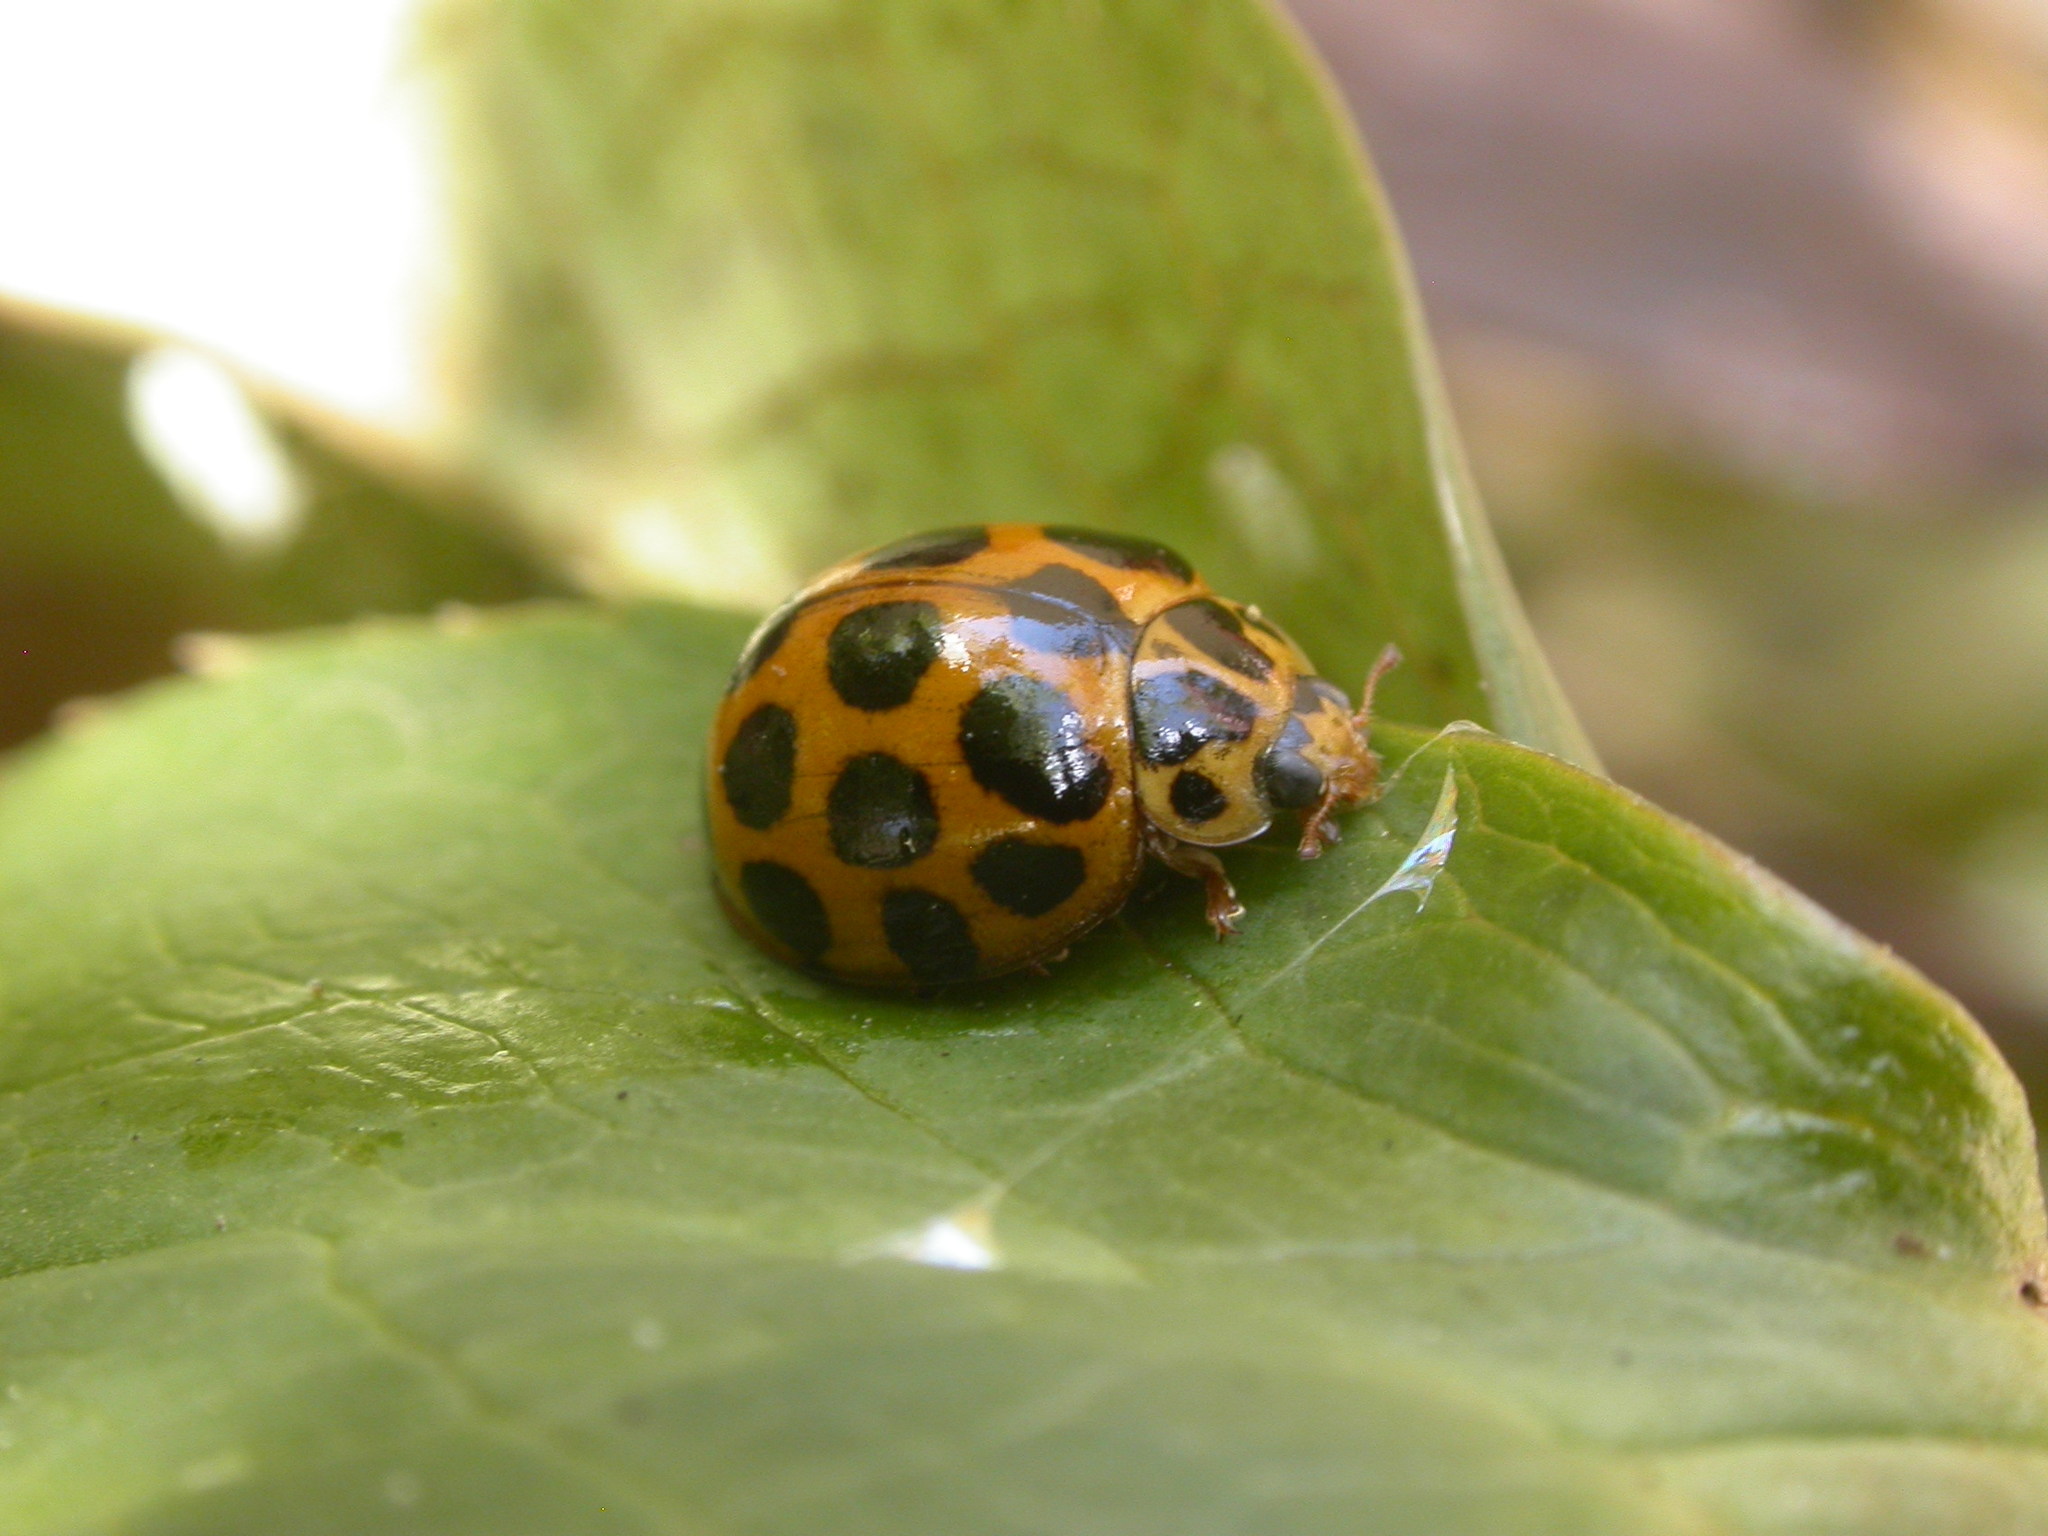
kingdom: Animalia
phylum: Arthropoda
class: Insecta
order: Coleoptera
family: Coccinellidae
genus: Harmonia
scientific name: Harmonia conformis
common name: Common spotted ladybird beetle
